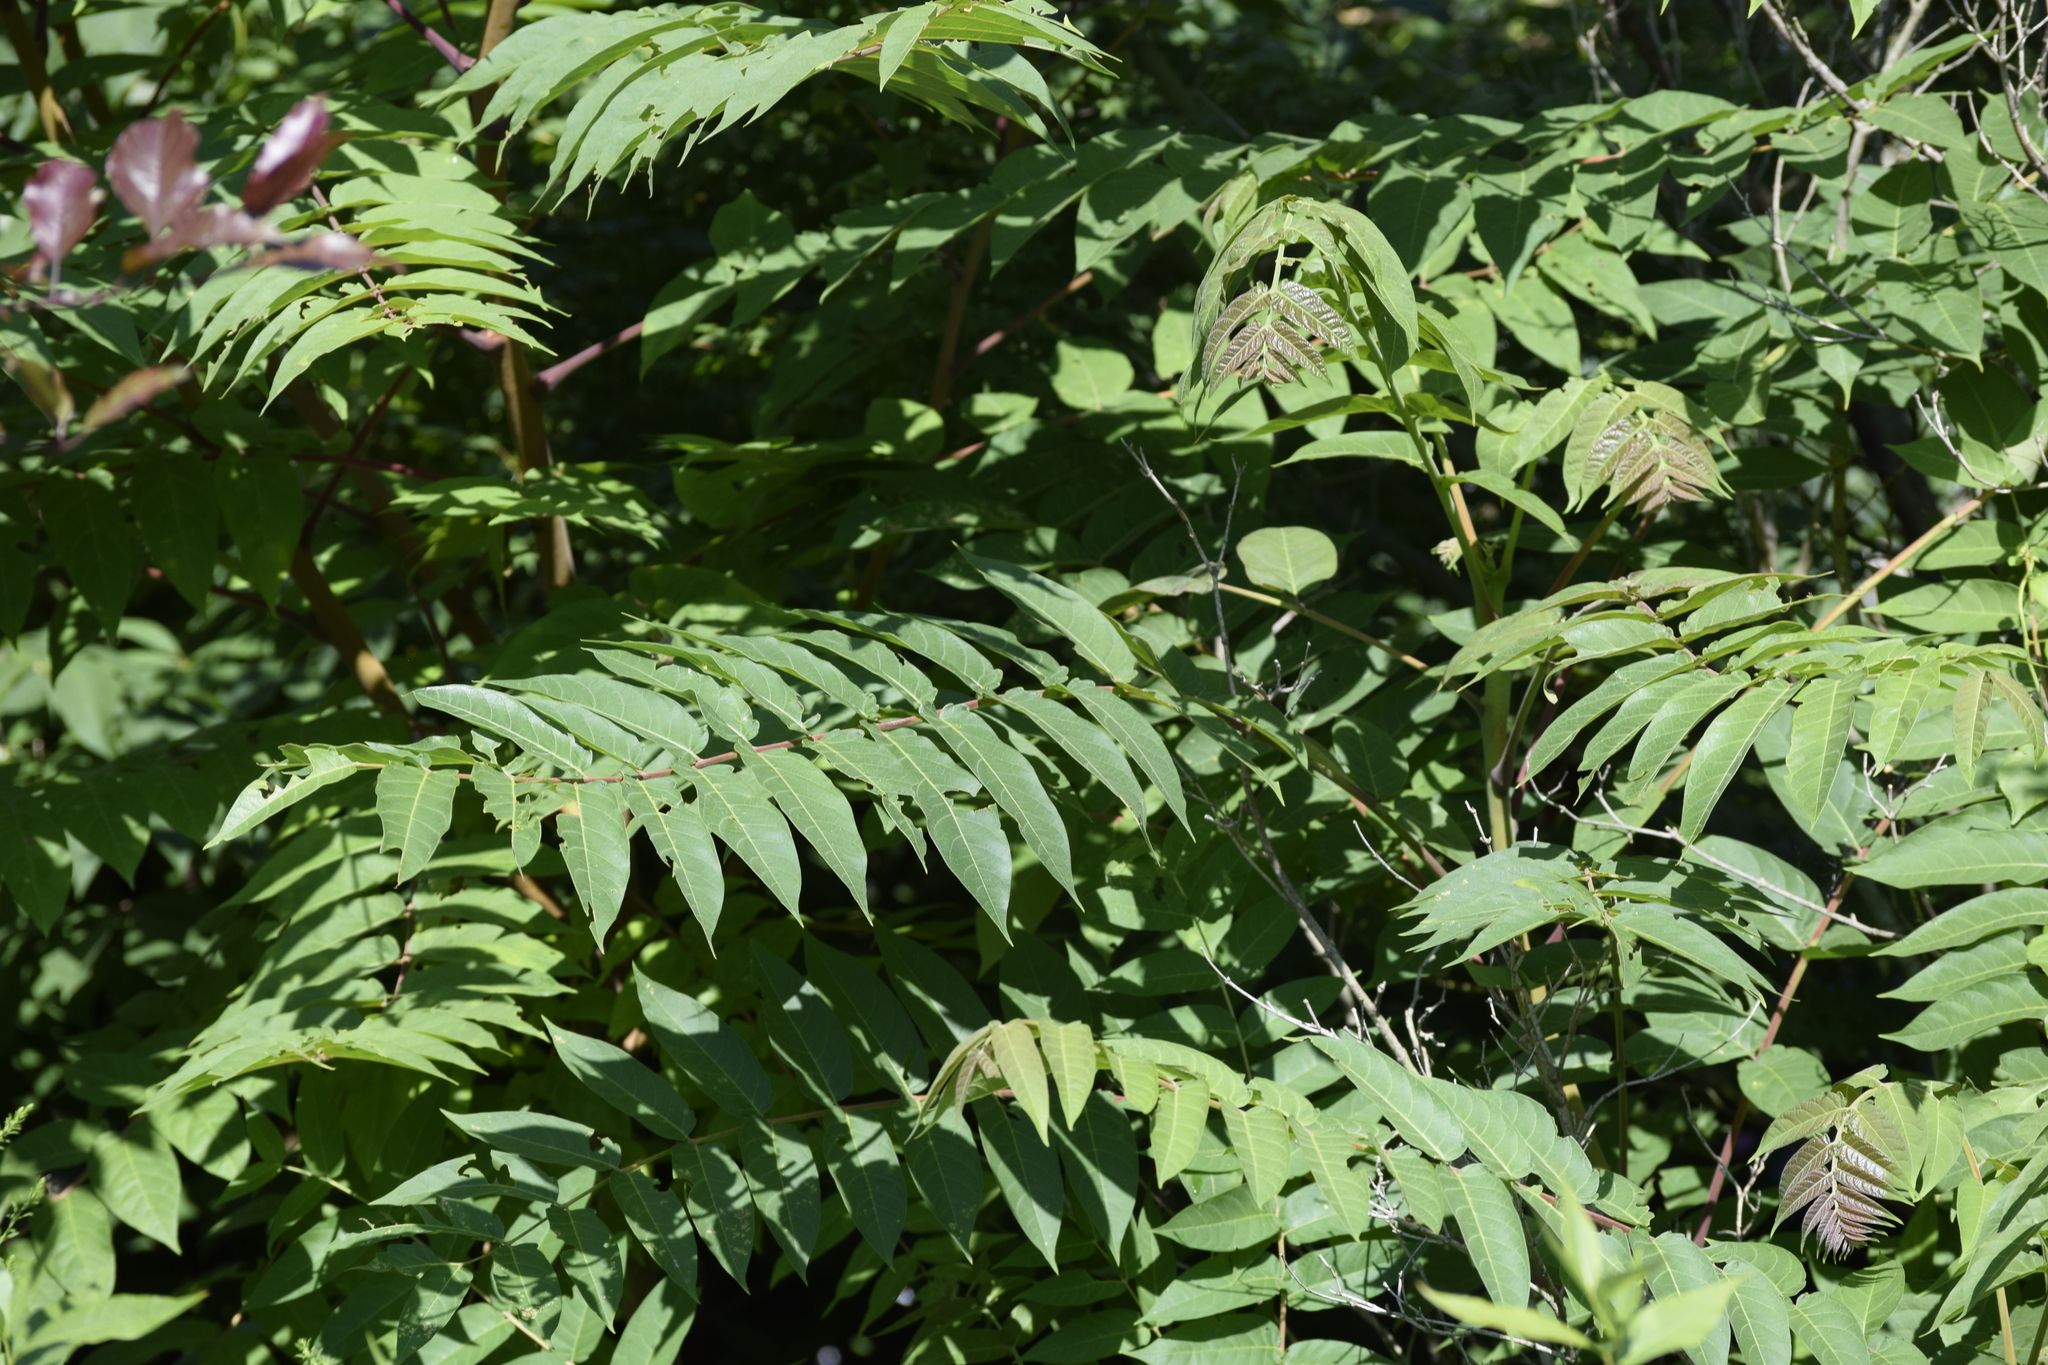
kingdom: Plantae
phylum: Tracheophyta
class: Magnoliopsida
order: Sapindales
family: Simaroubaceae
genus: Ailanthus
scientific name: Ailanthus altissima
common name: Tree-of-heaven
